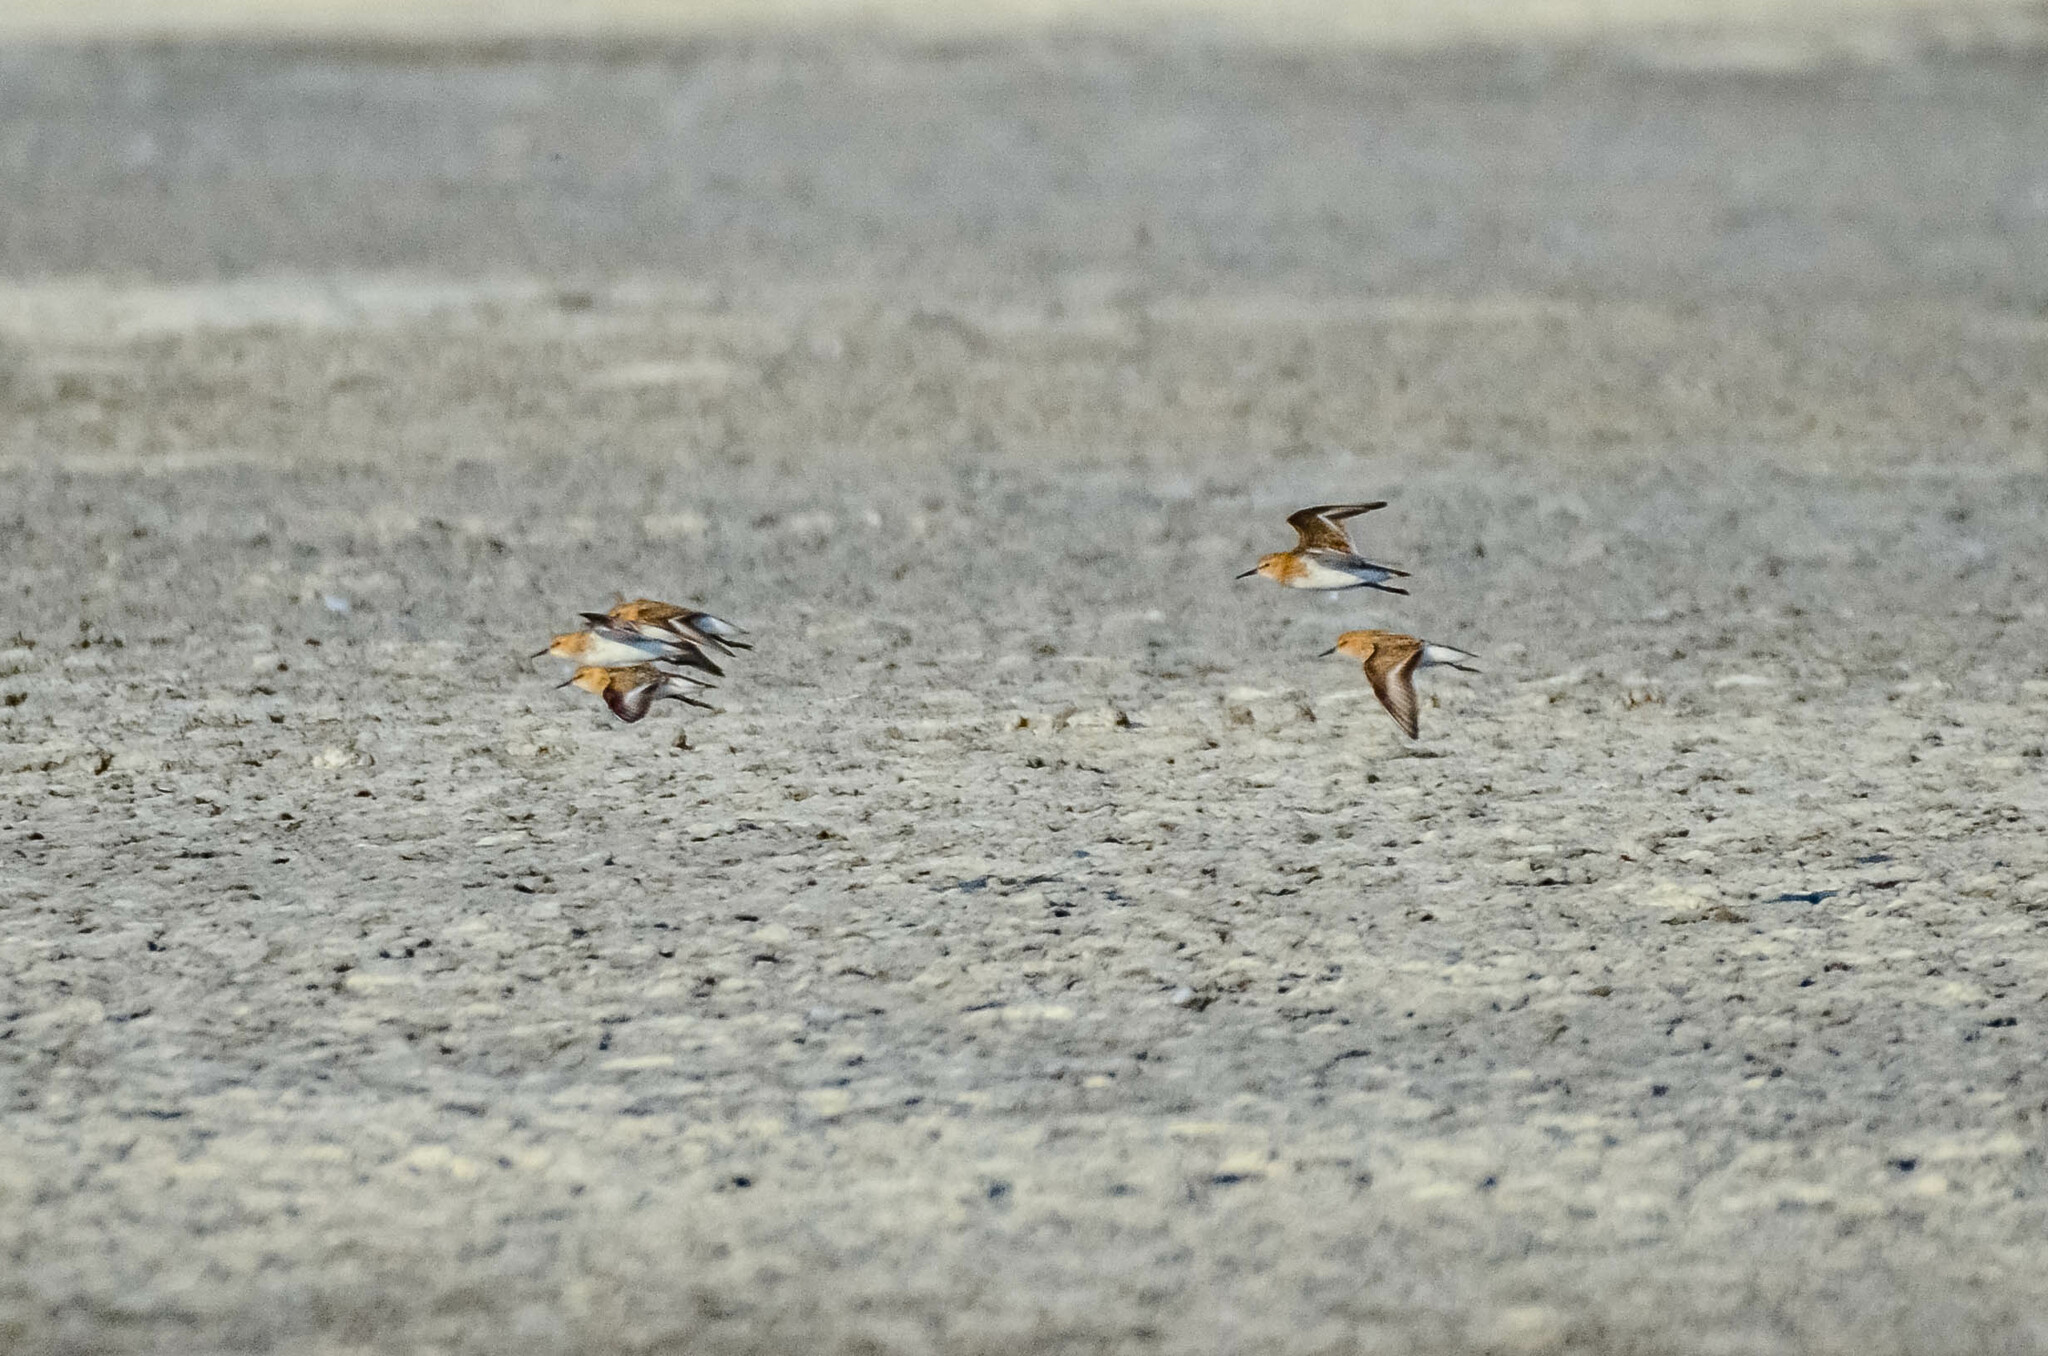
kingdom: Animalia
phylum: Chordata
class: Aves
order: Charadriiformes
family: Scolopacidae
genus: Calidris
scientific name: Calidris minuta
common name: Little stint
